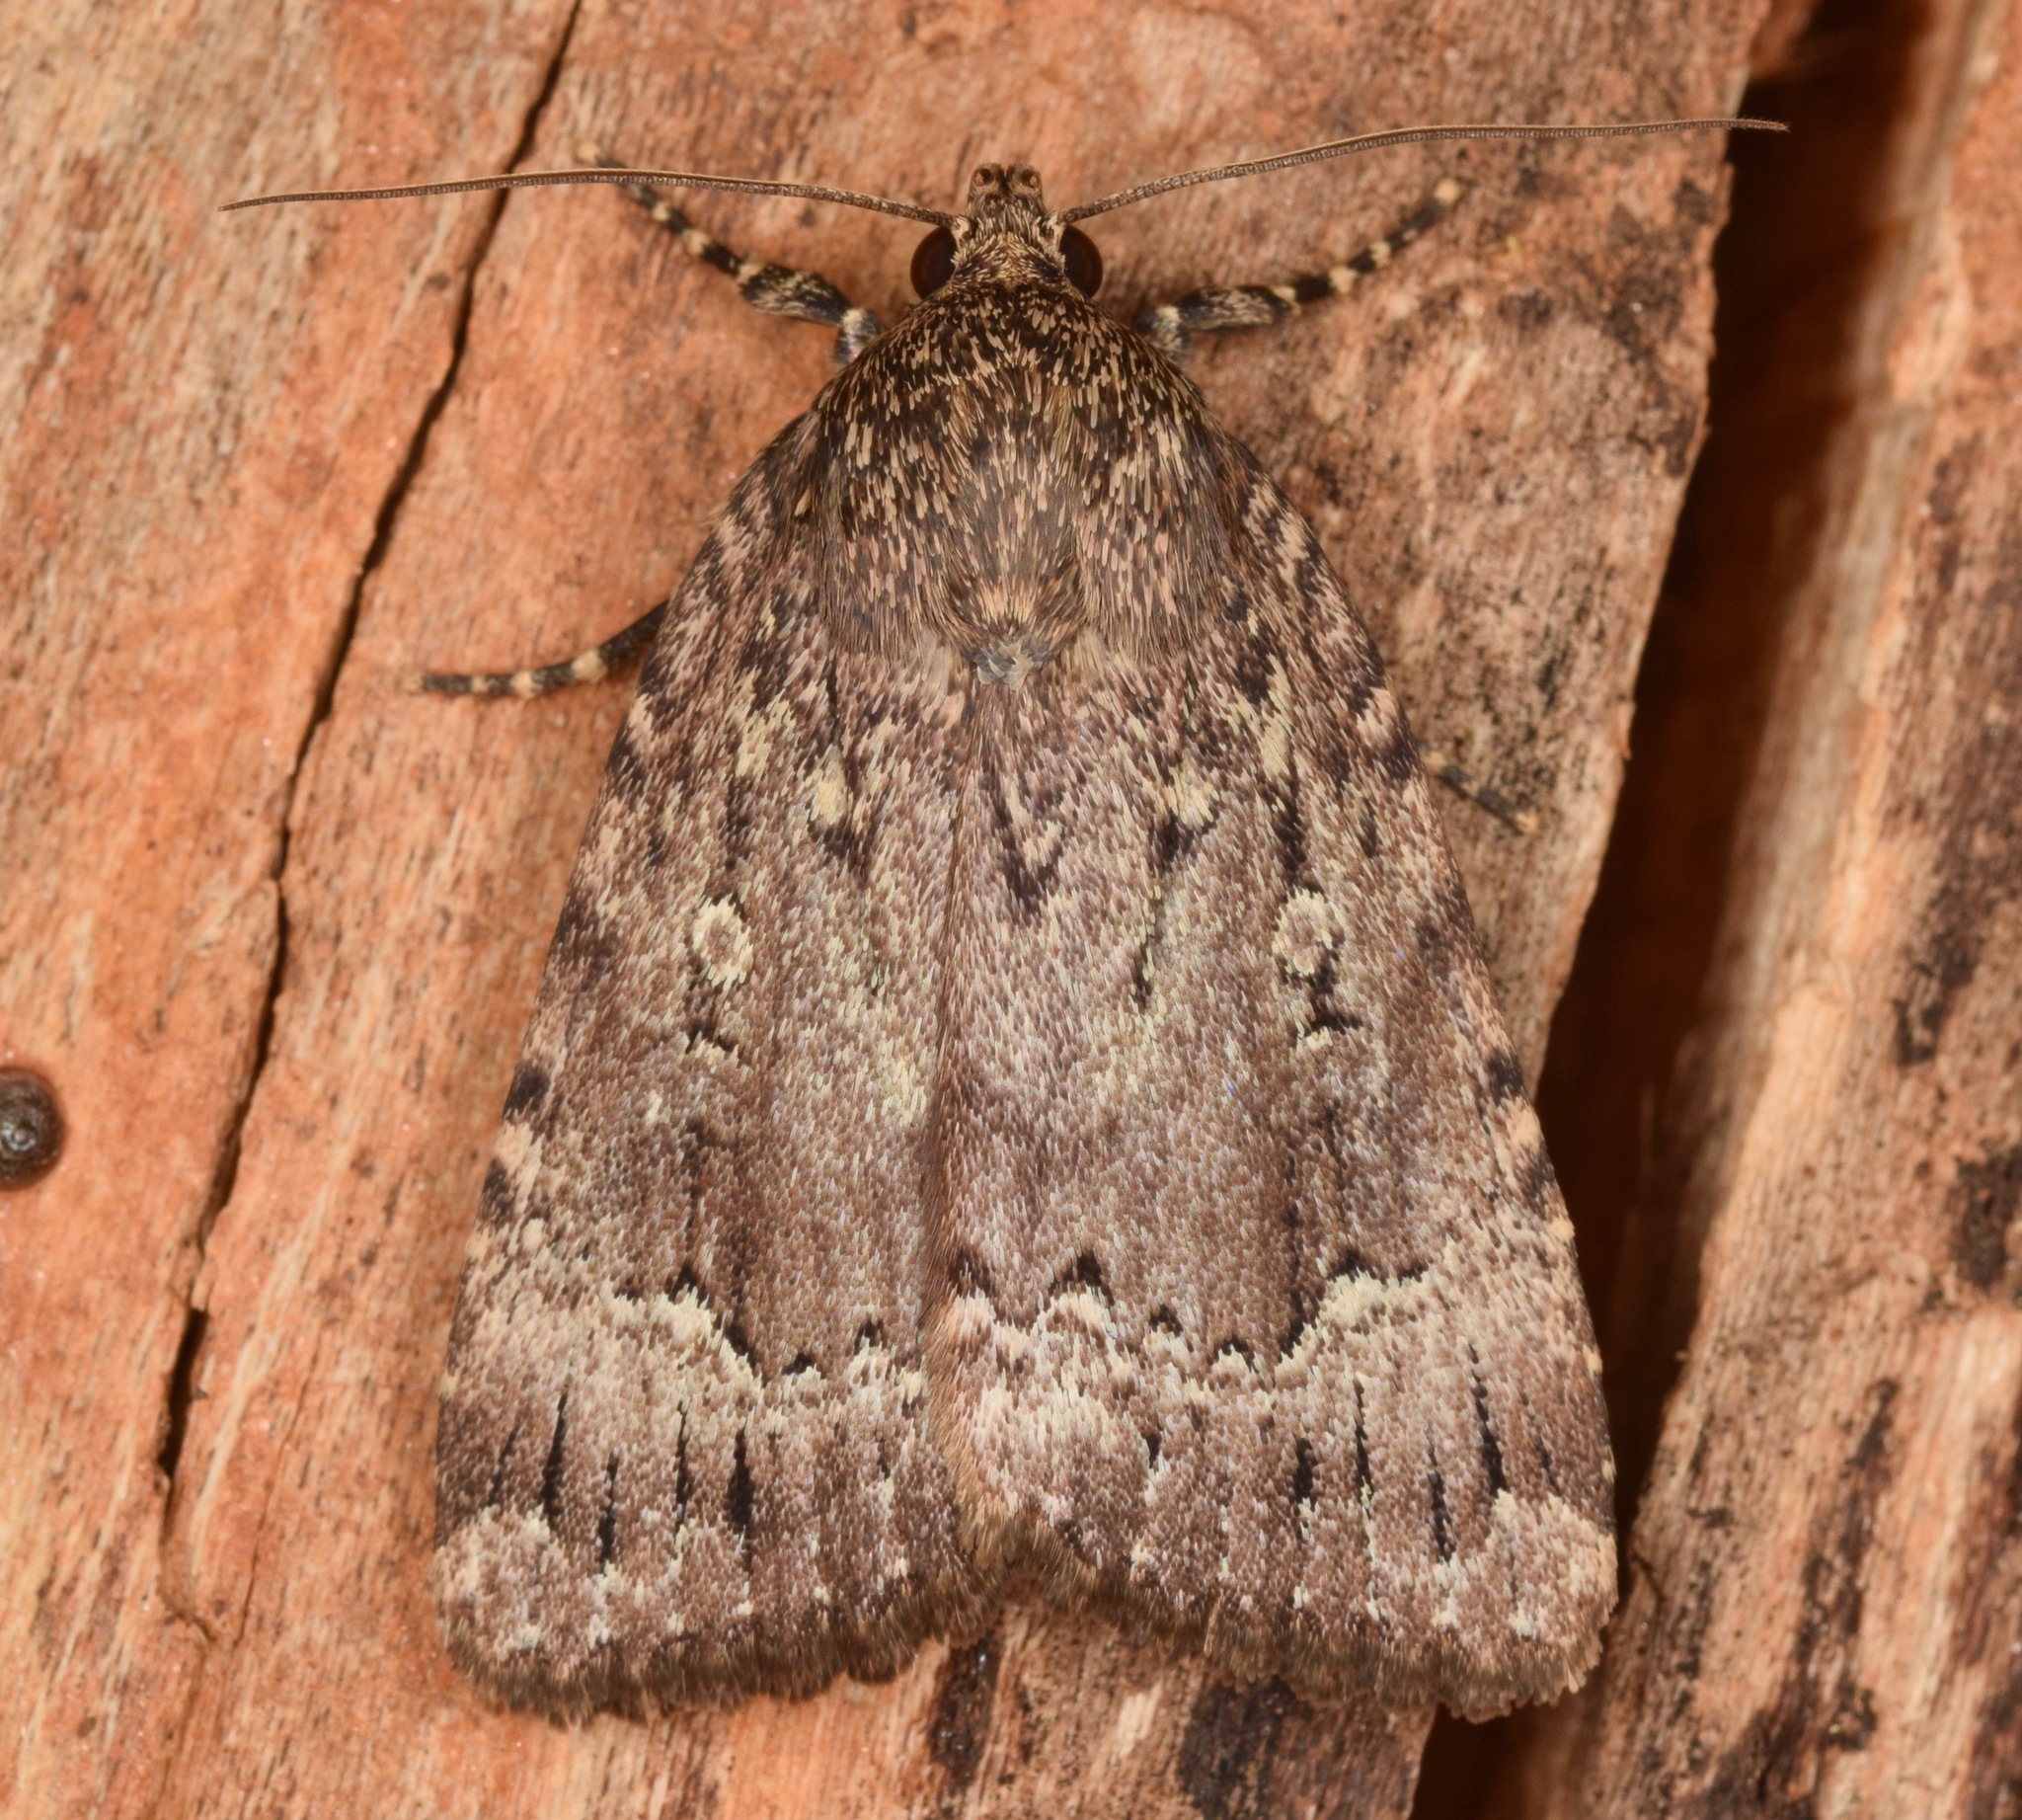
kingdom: Animalia
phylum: Arthropoda
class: Insecta
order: Lepidoptera
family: Noctuidae
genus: Amphipyra
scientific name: Amphipyra pyramidoides
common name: American copper underwing
